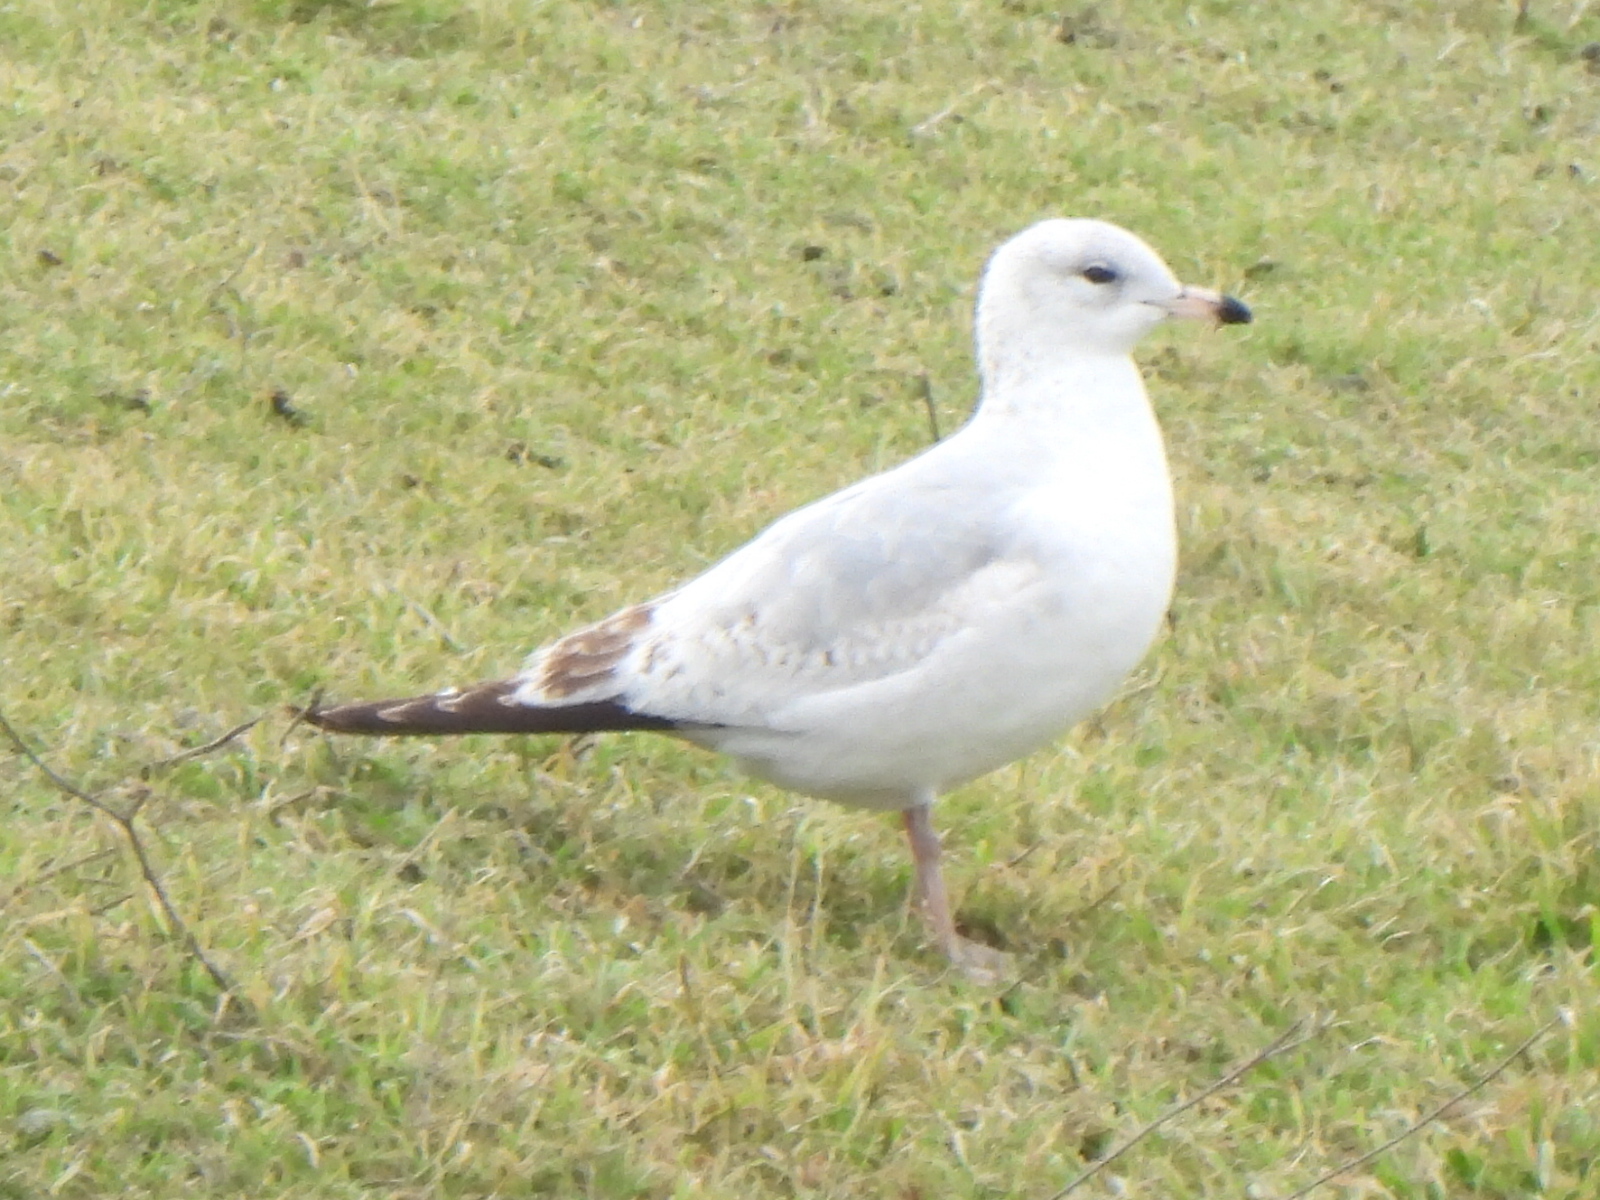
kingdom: Animalia
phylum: Chordata
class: Aves
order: Charadriiformes
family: Laridae
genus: Larus
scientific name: Larus delawarensis
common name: Ring-billed gull
